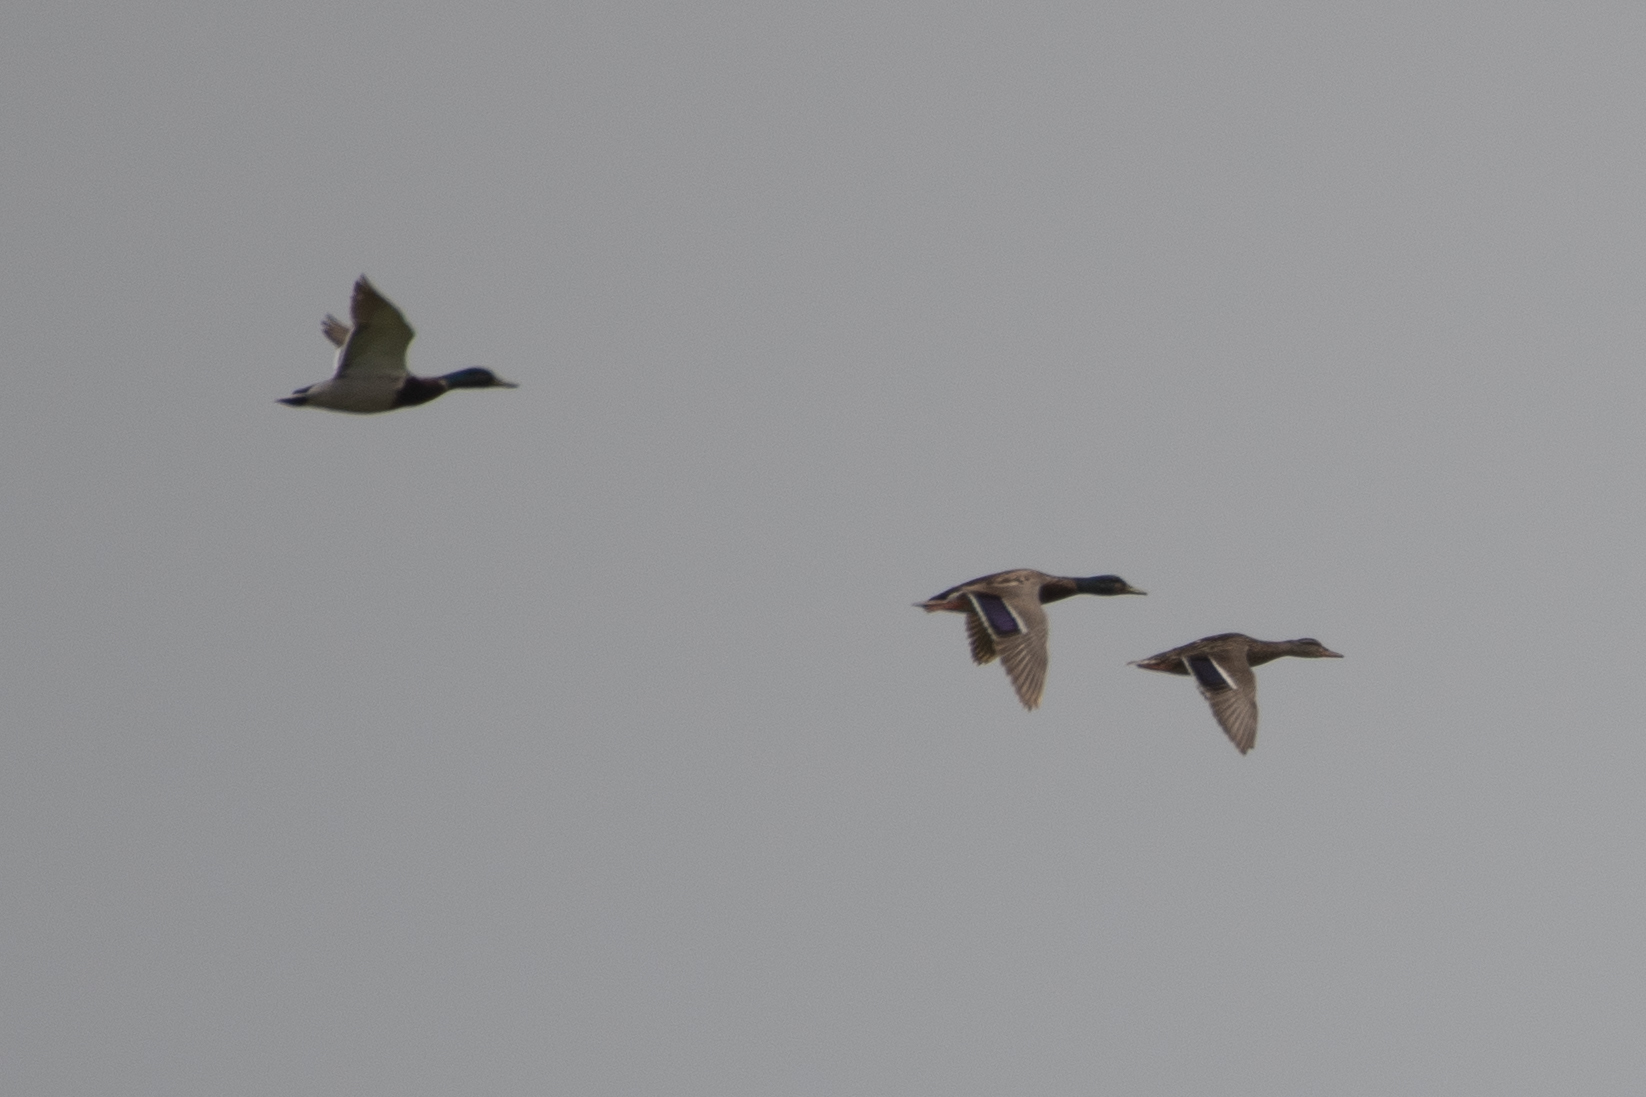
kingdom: Animalia
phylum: Chordata
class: Aves
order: Anseriformes
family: Anatidae
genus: Anas
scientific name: Anas platyrhynchos
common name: Mallard
